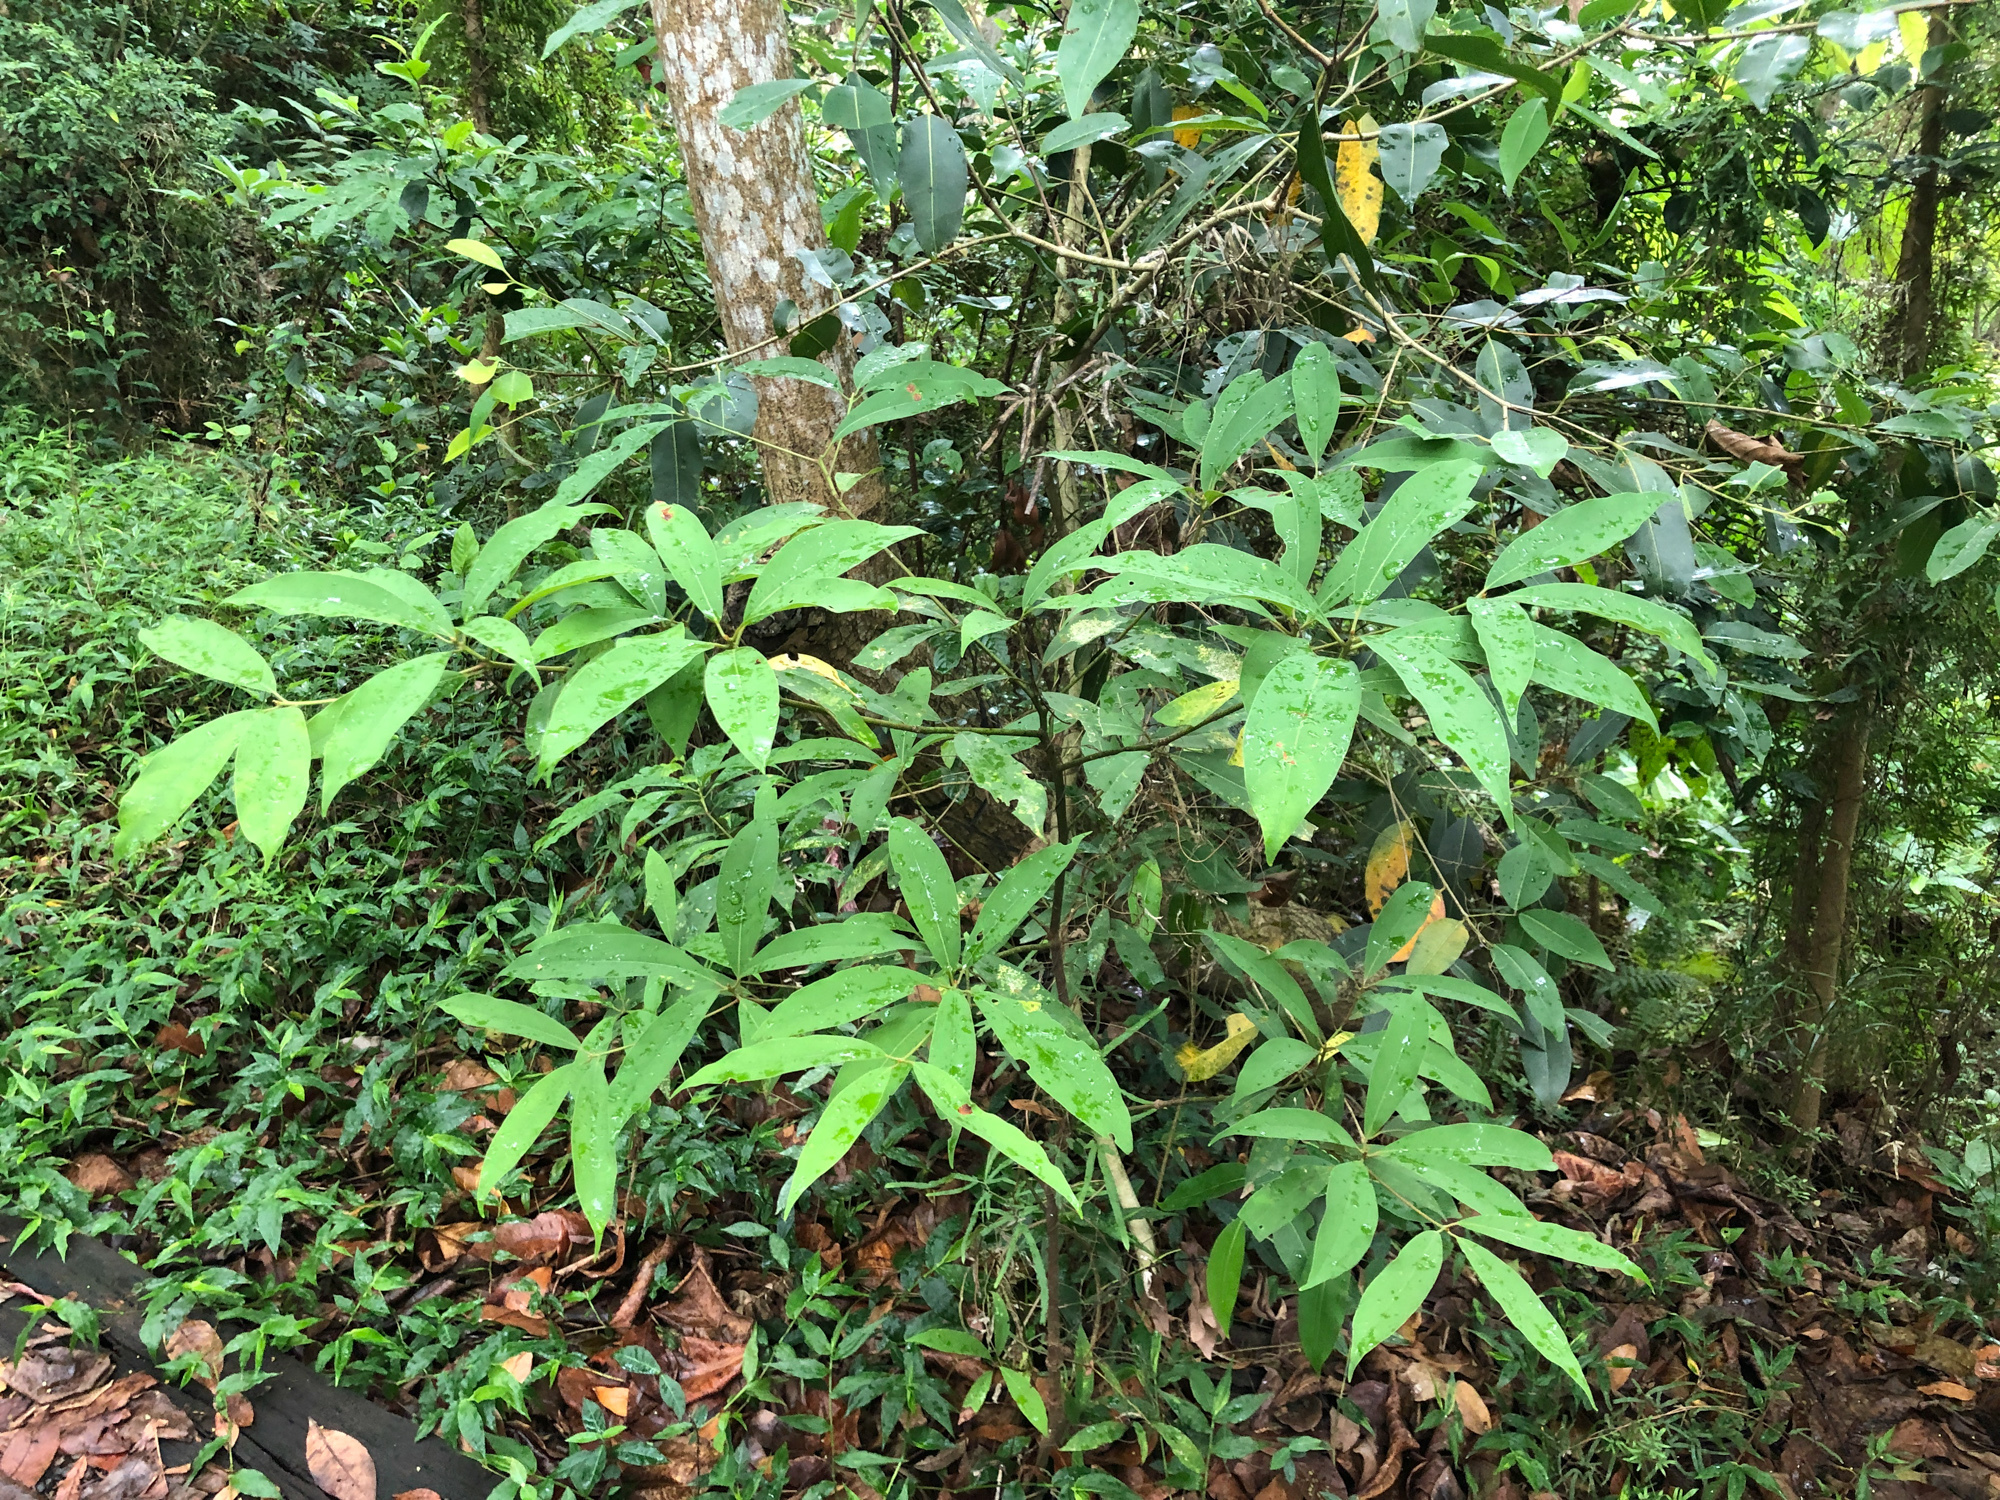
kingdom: Plantae
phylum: Tracheophyta
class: Magnoliopsida
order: Laurales
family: Lauraceae
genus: Machilus
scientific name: Machilus zuihoensis
